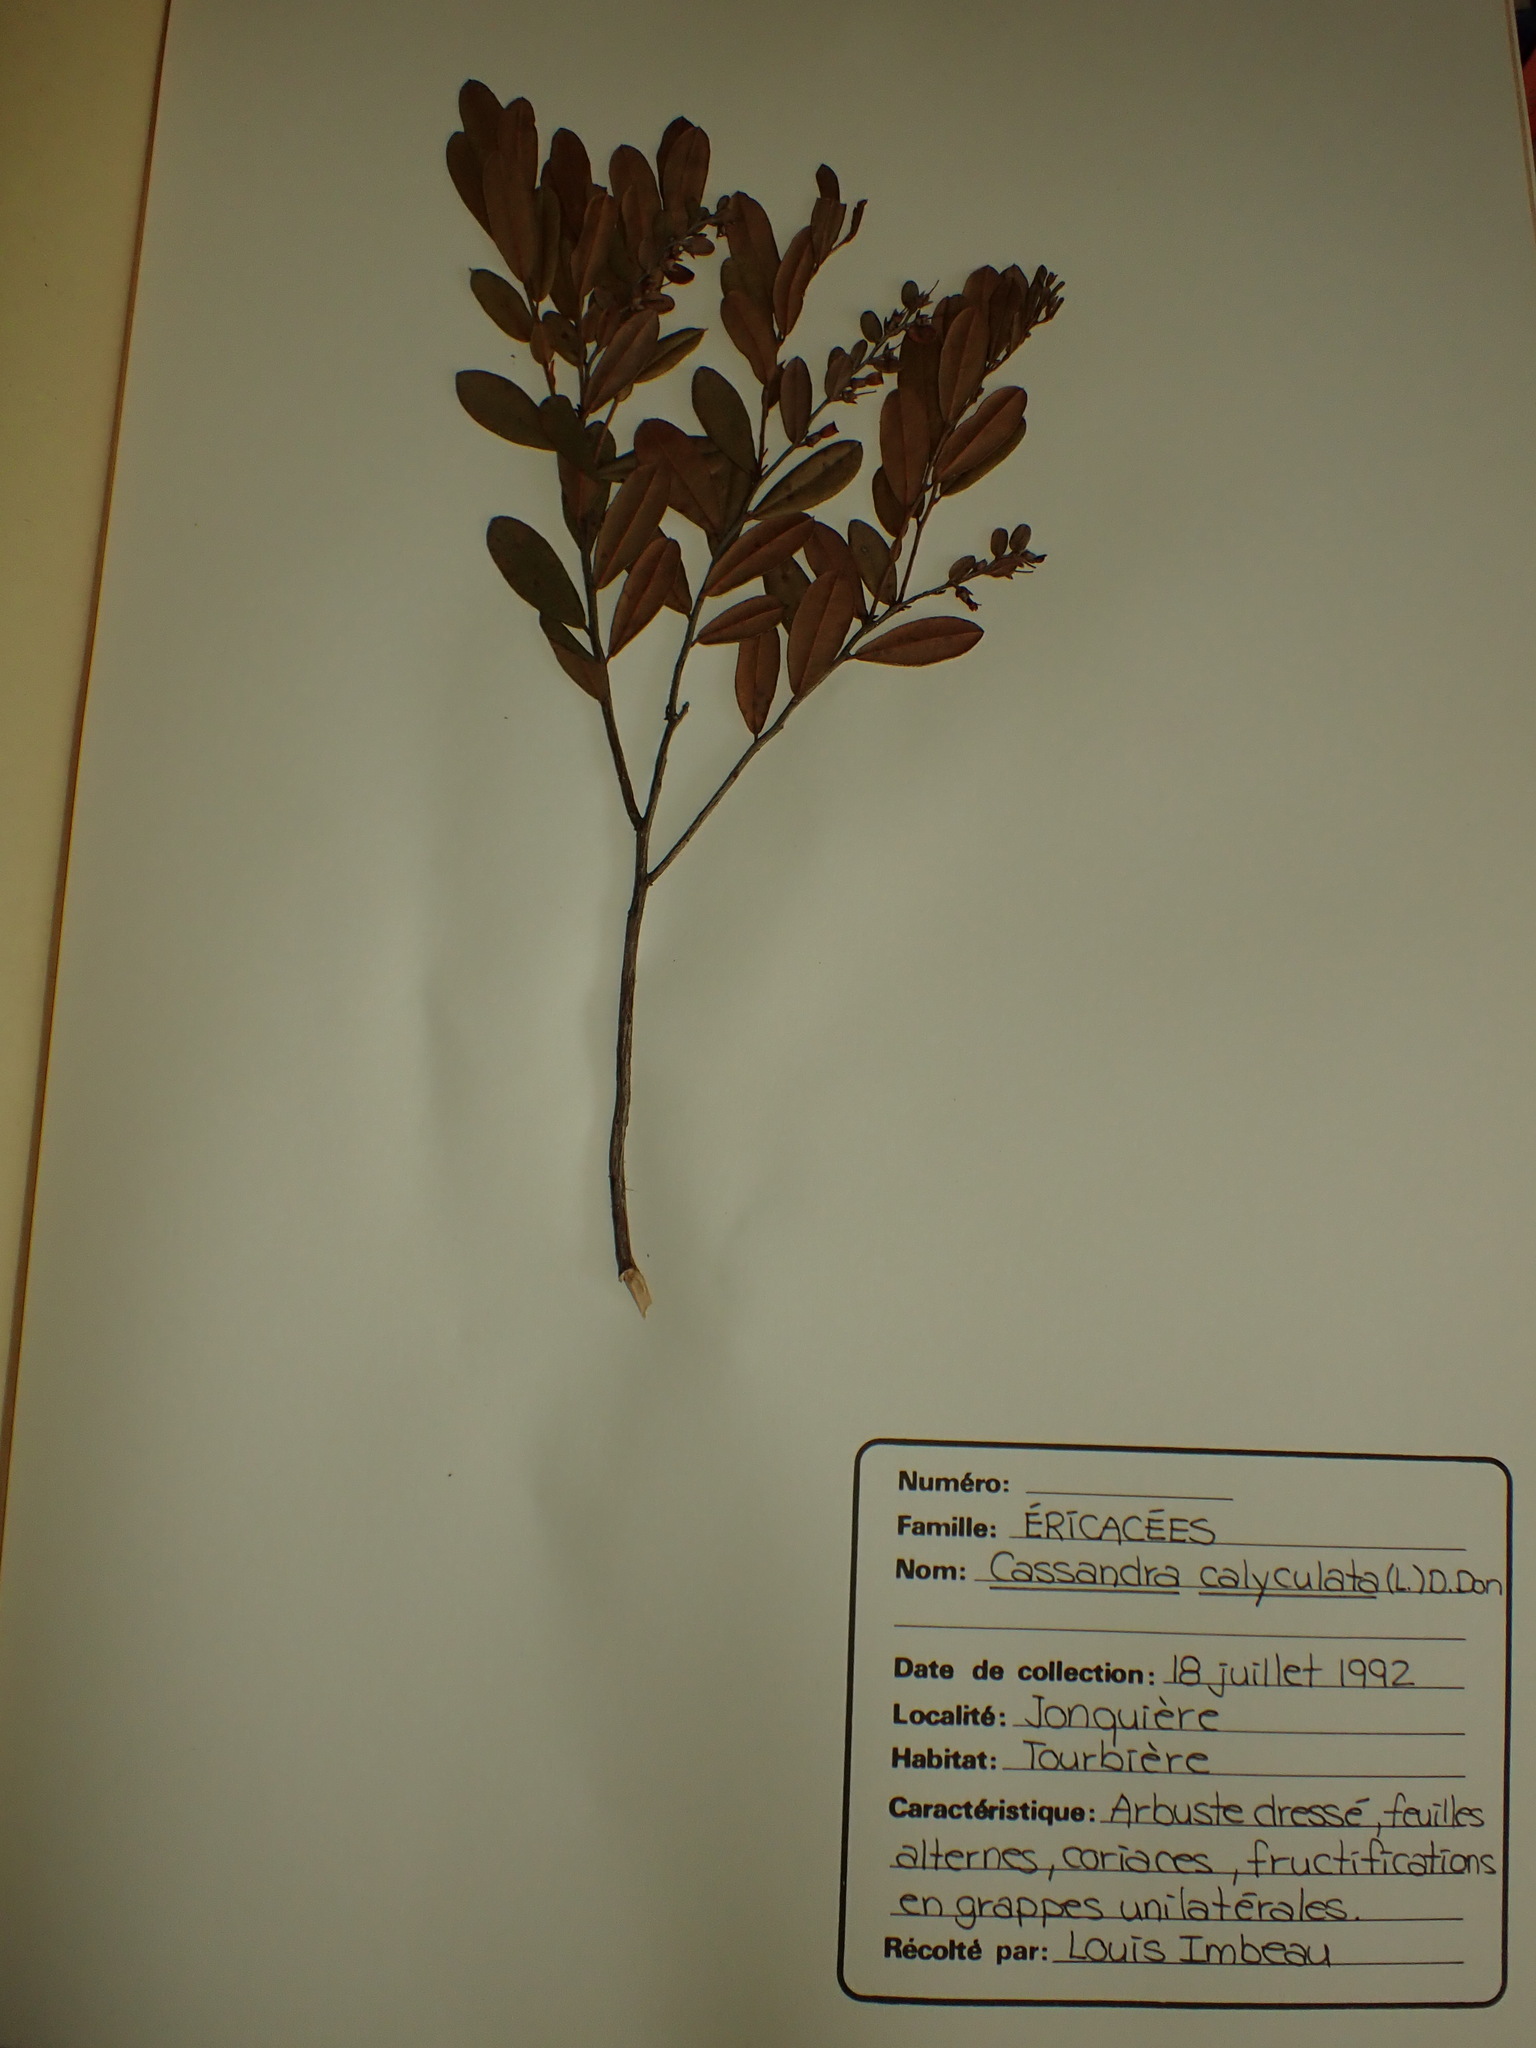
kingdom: Plantae
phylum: Tracheophyta
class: Magnoliopsida
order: Ericales
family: Ericaceae
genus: Chamaedaphne
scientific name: Chamaedaphne calyculata
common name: Leatherleaf
